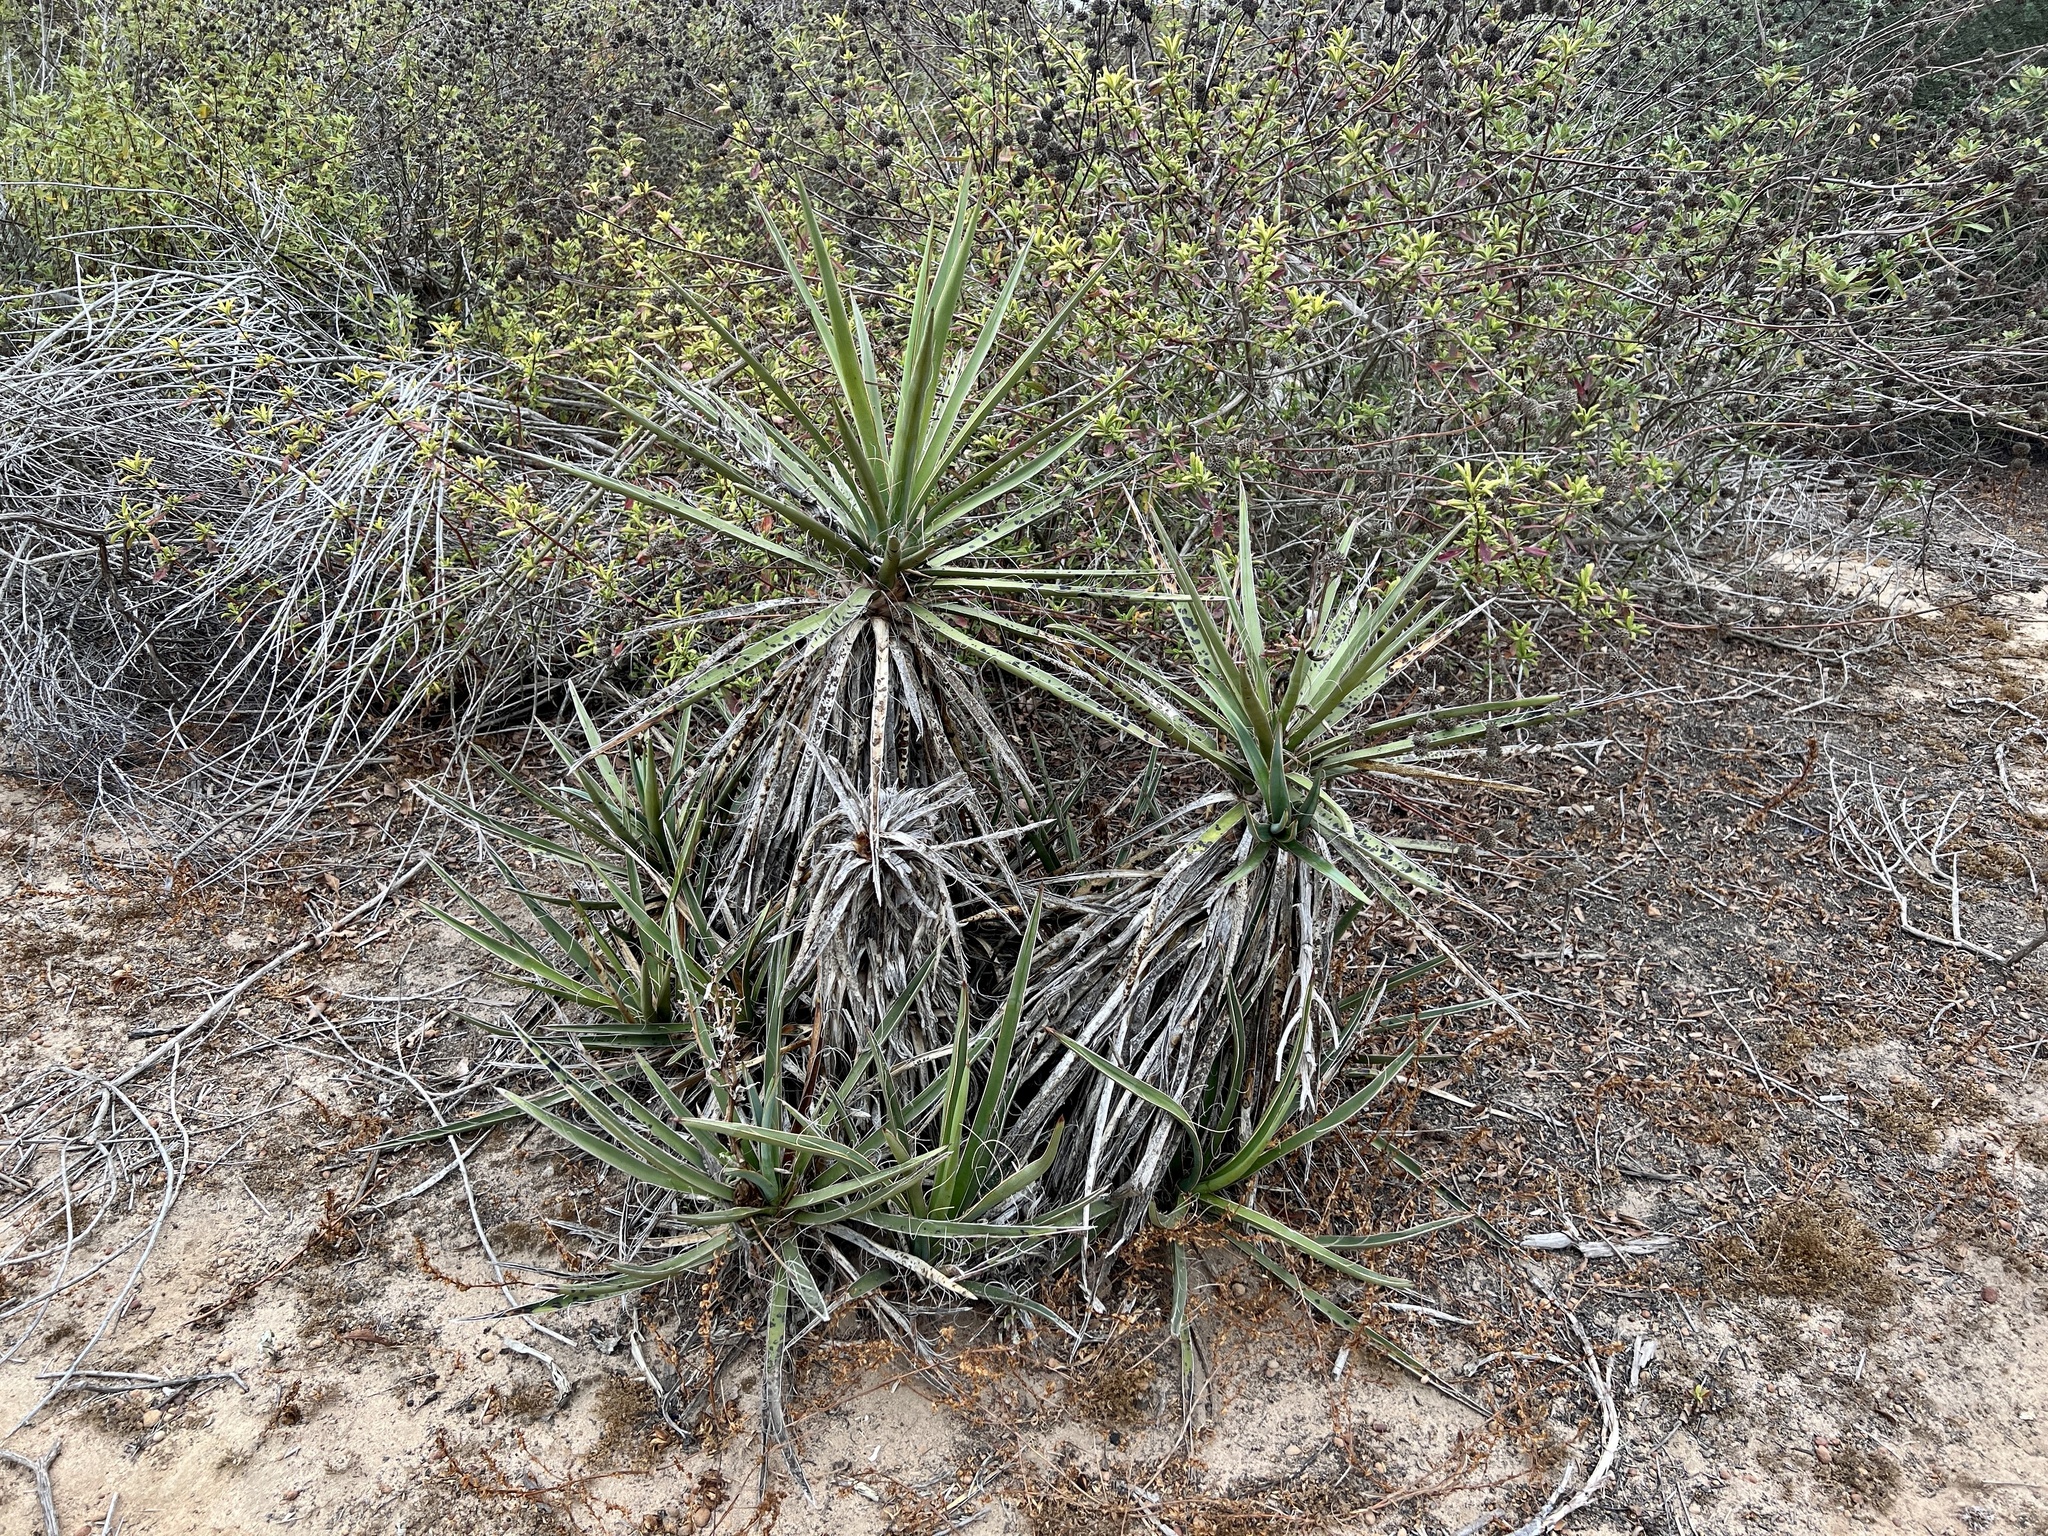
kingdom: Plantae
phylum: Tracheophyta
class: Liliopsida
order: Asparagales
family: Asparagaceae
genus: Yucca
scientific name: Yucca schidigera
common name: Mojave yucca
